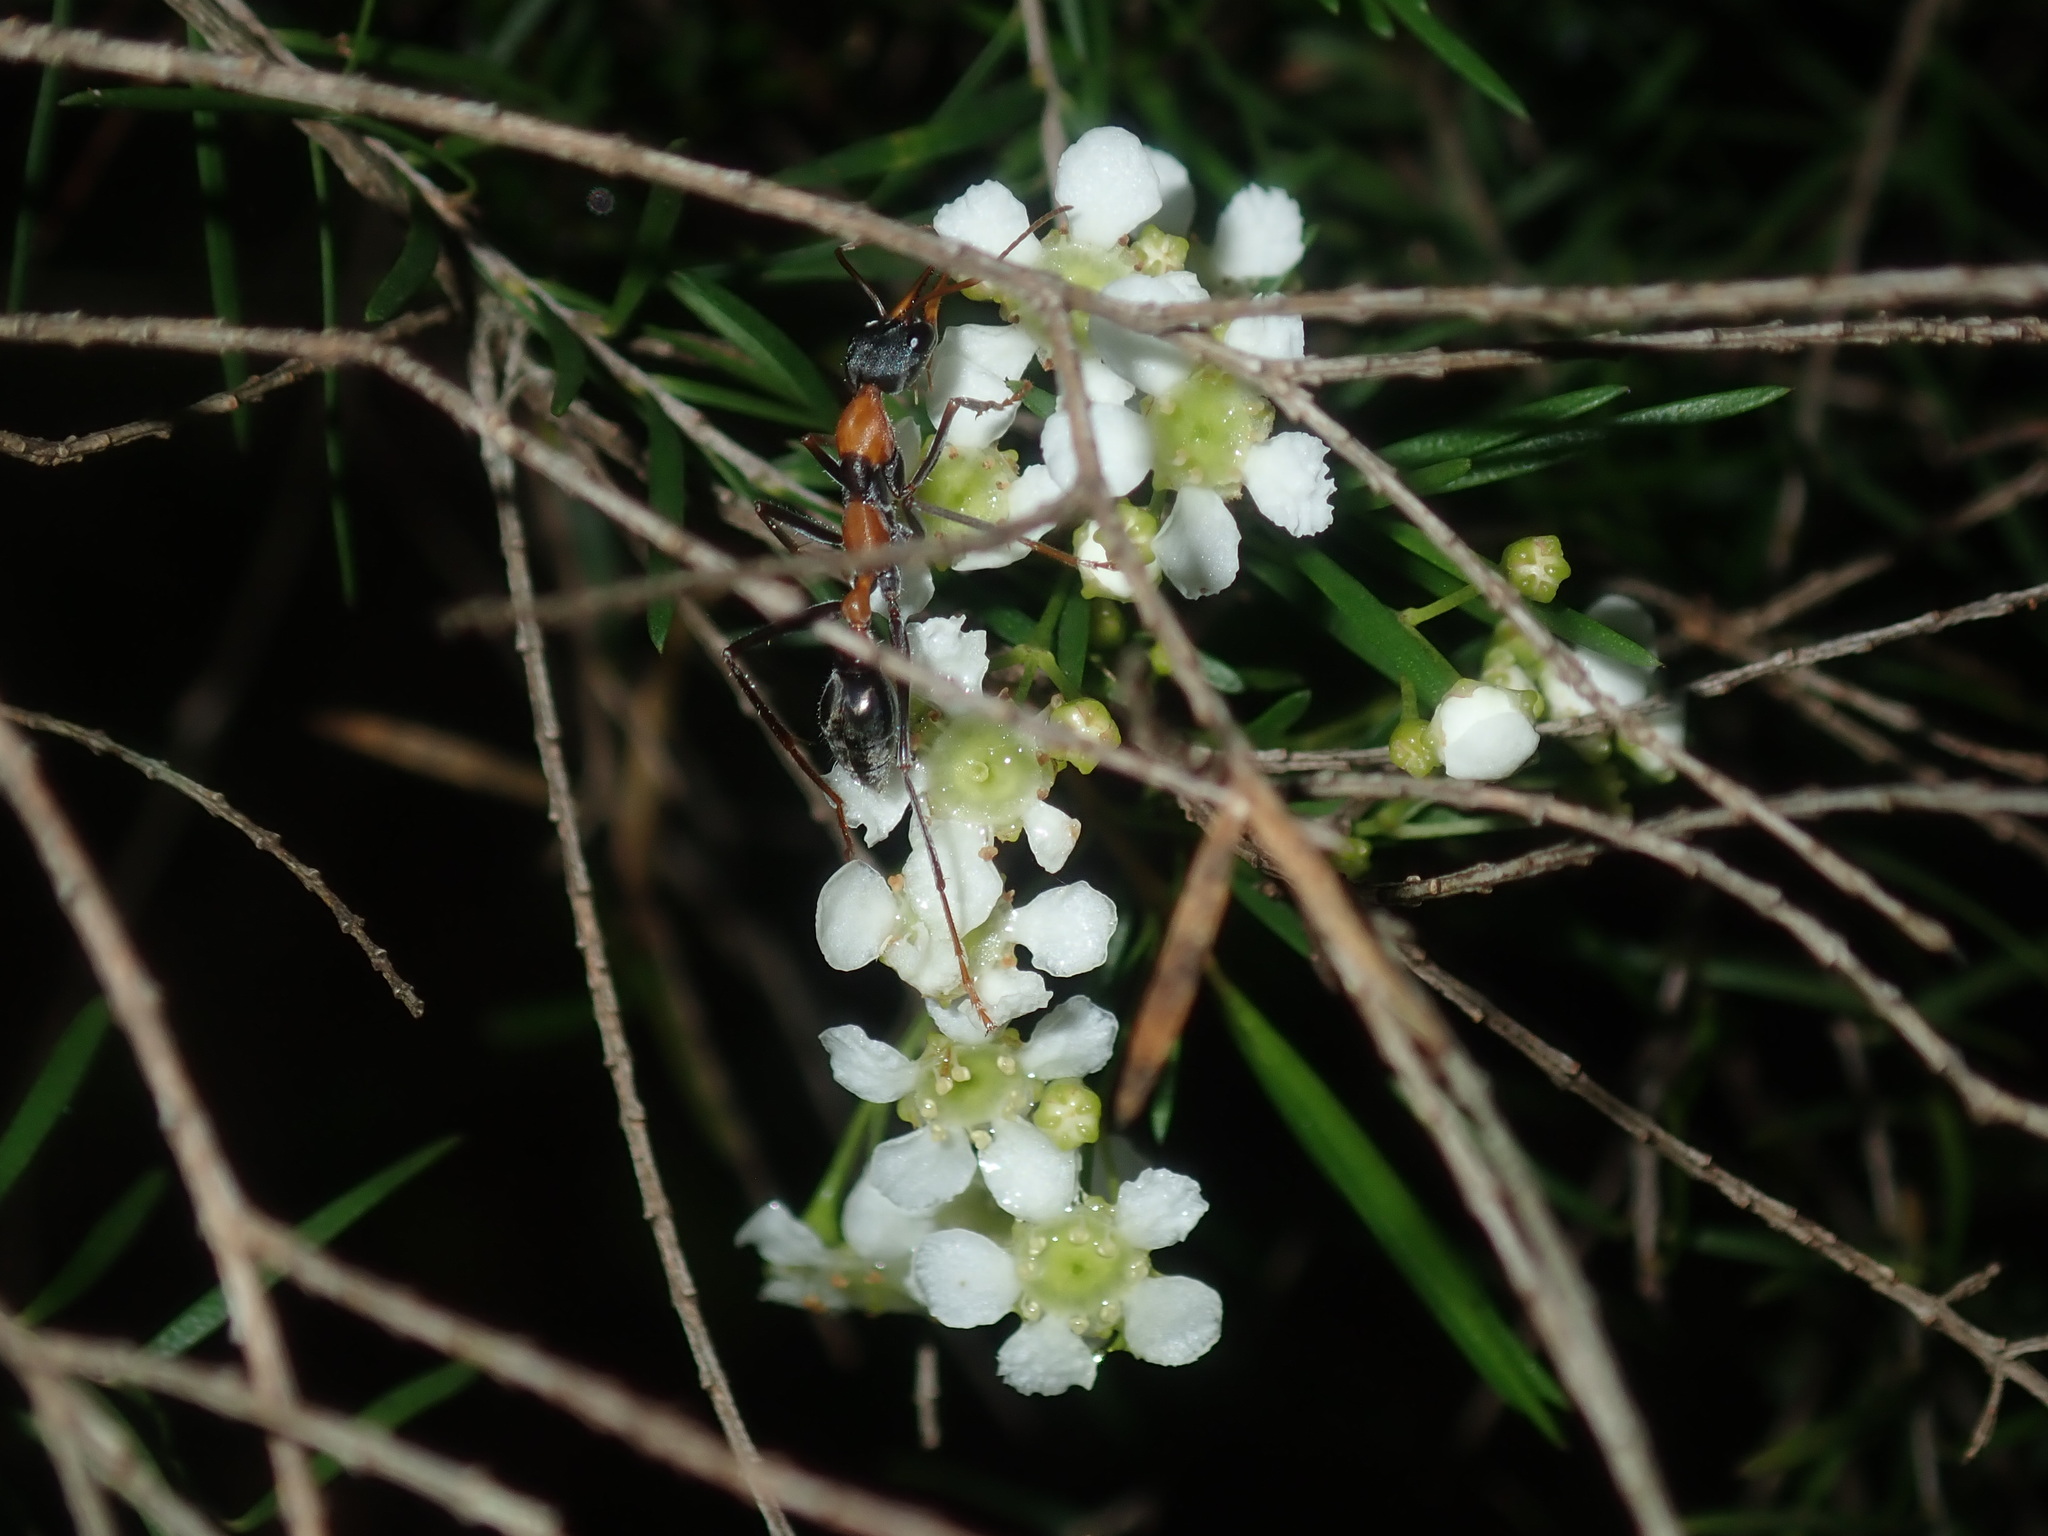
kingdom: Animalia
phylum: Arthropoda
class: Insecta
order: Hymenoptera
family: Formicidae
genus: Myrmecia
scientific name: Myrmecia nigrocincta
